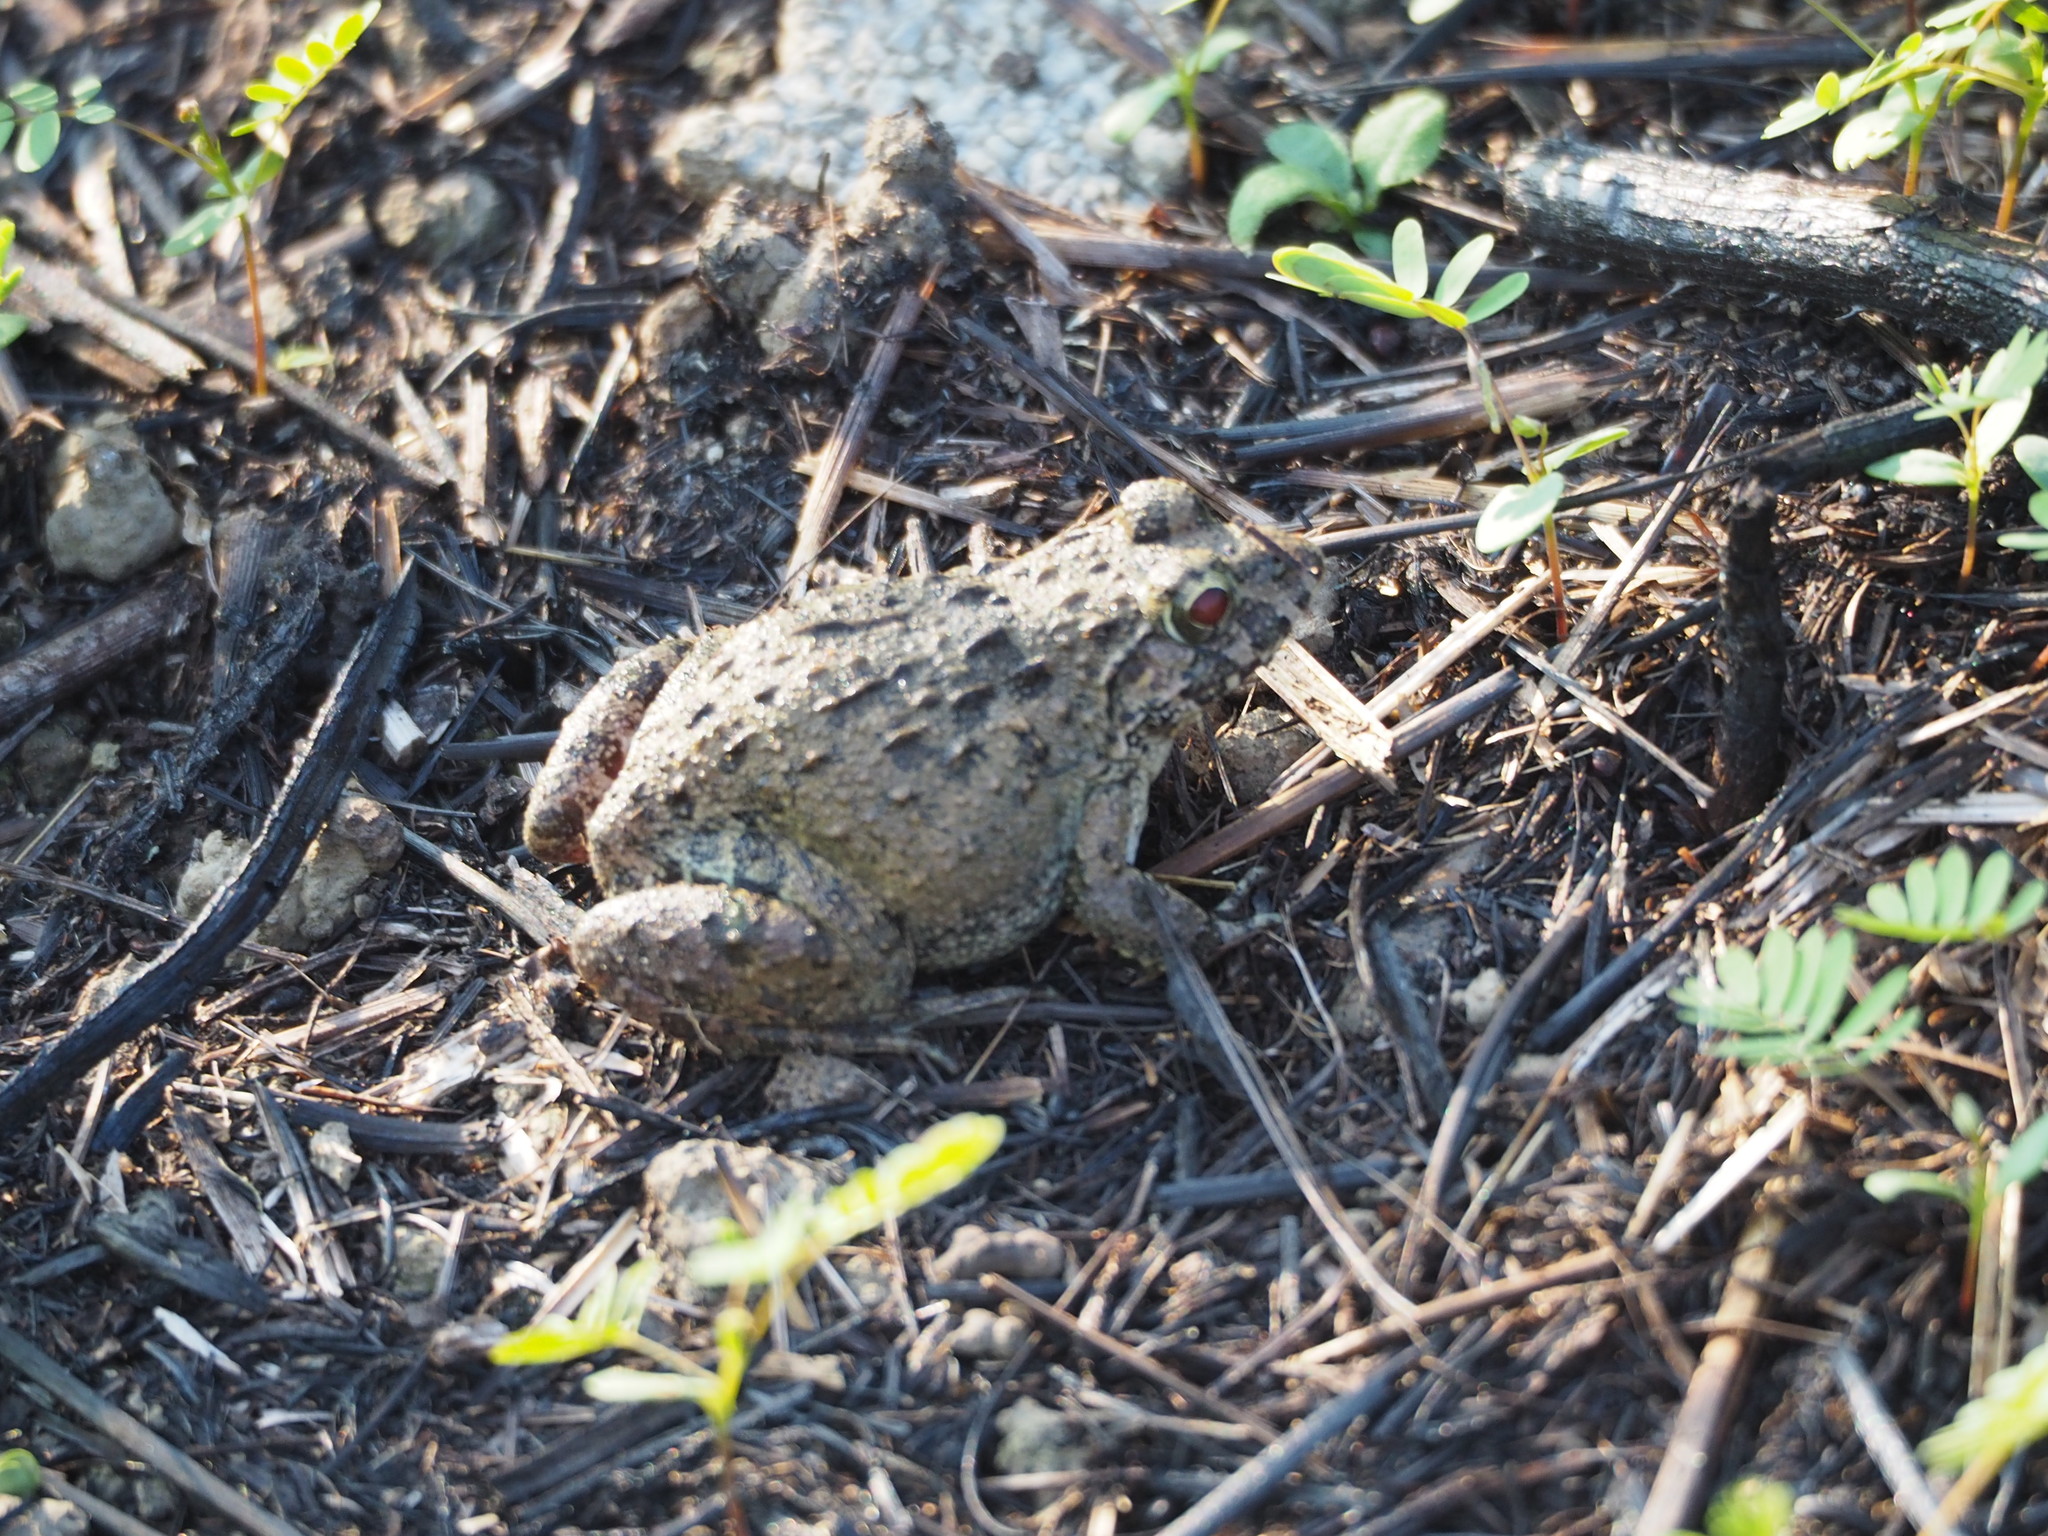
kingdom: Animalia
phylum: Chordata
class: Amphibia
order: Anura
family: Dicroglossidae
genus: Fejervarya
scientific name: Fejervarya limnocharis
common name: Asian grass frog/common pond frog/field frog/grass frog/indian rice frog
